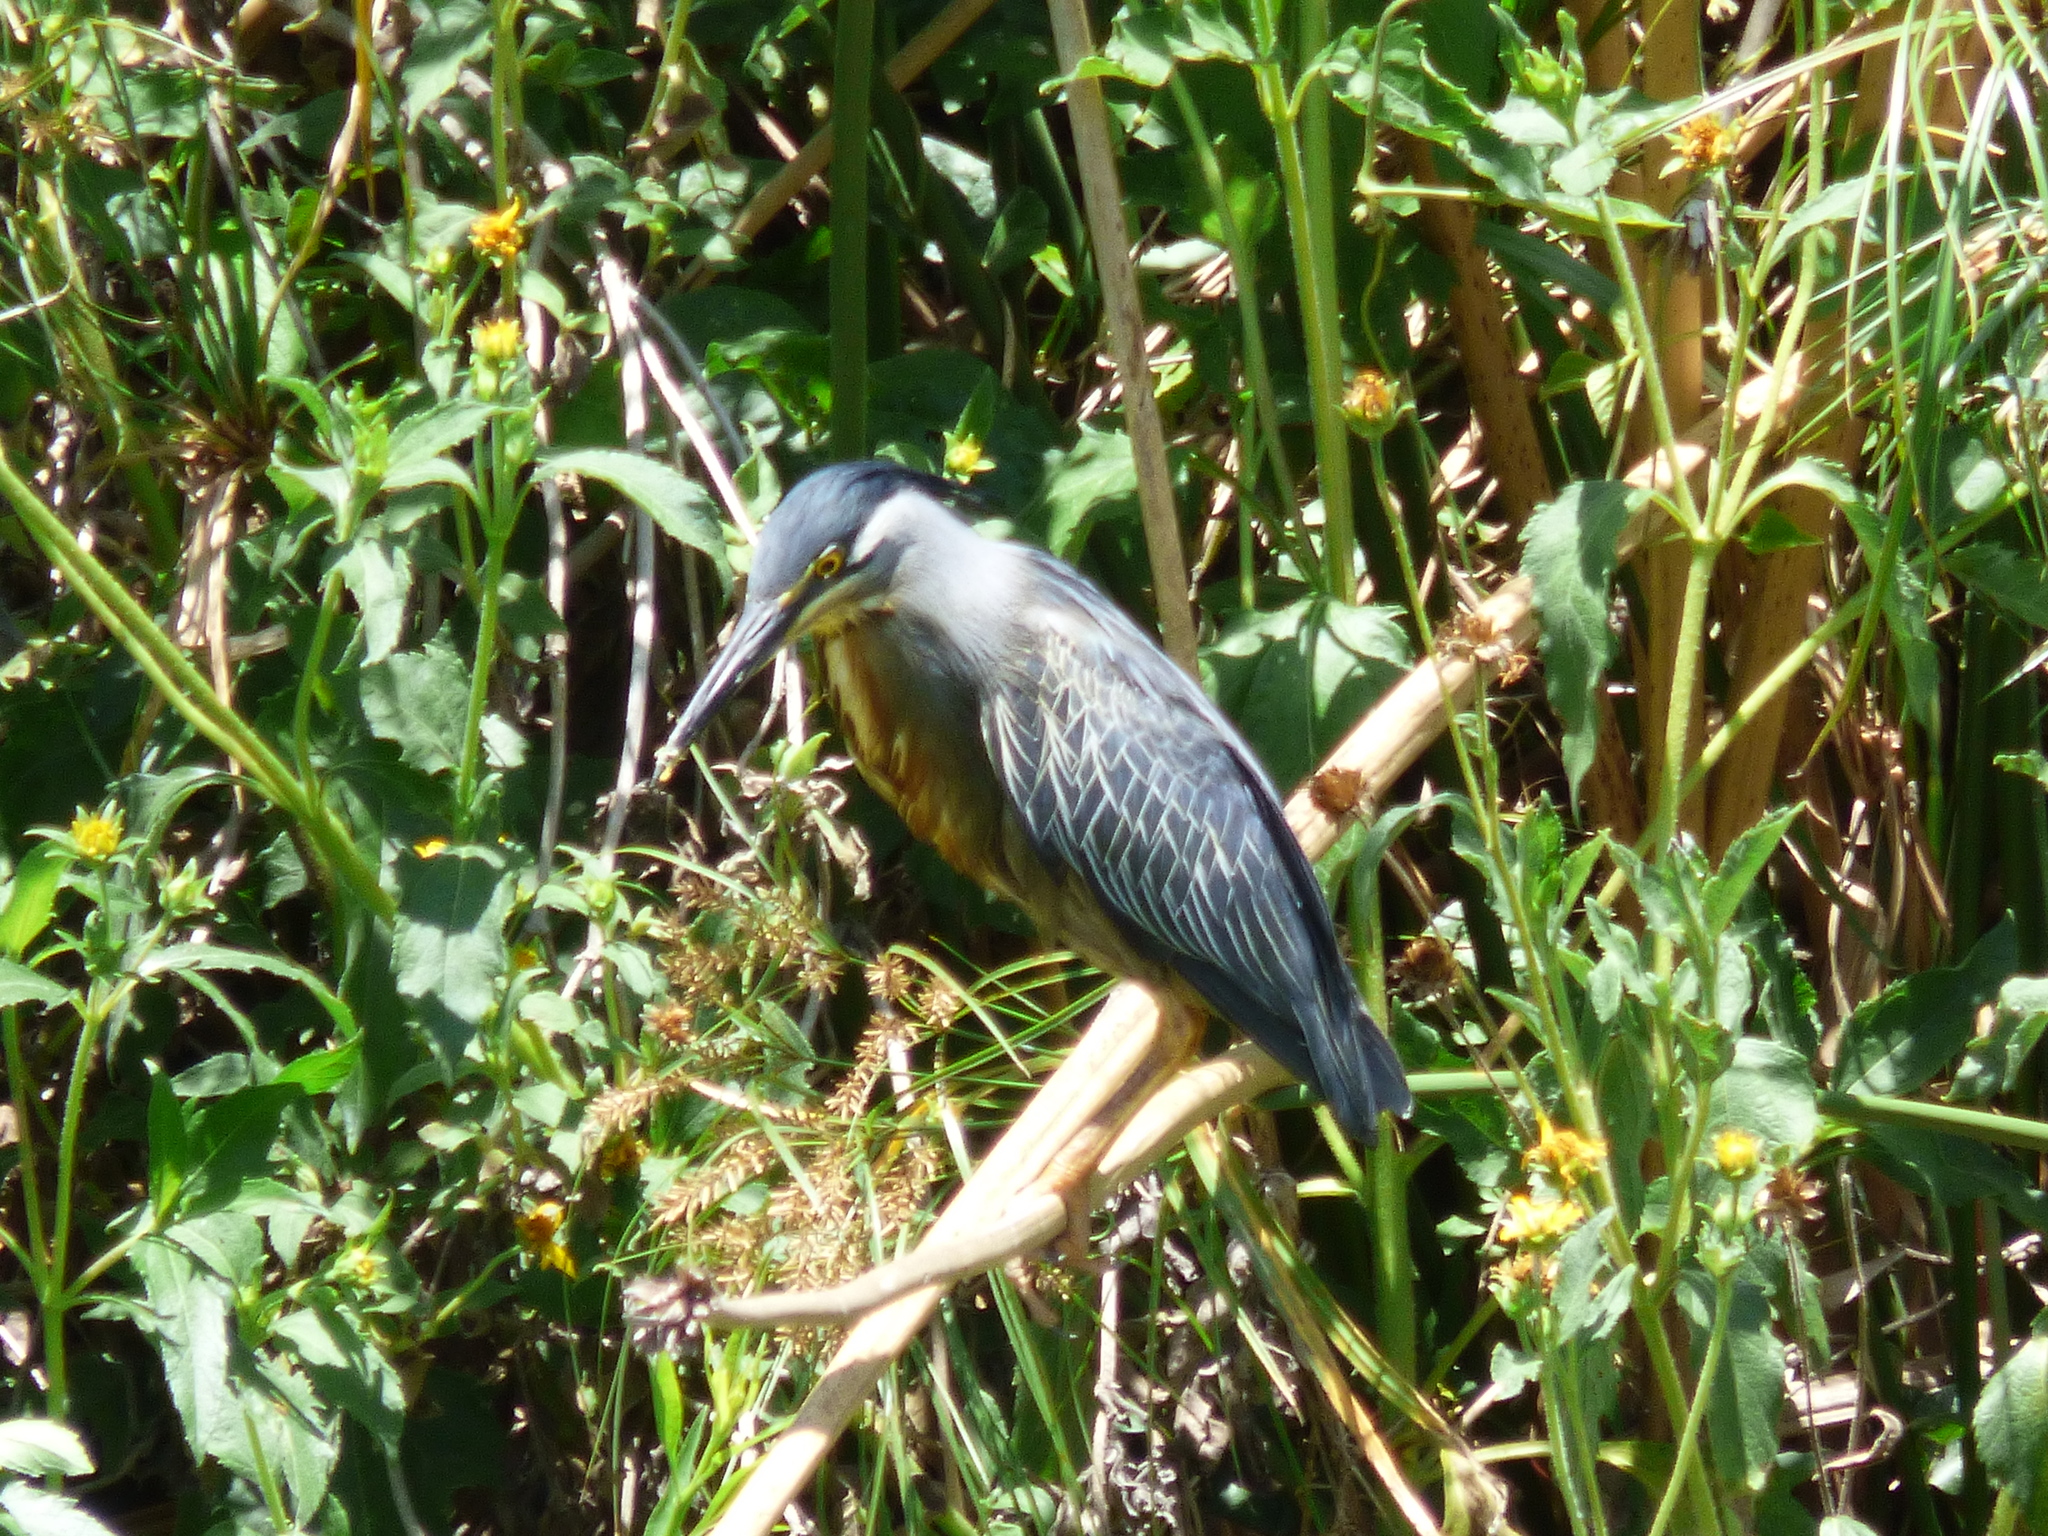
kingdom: Animalia
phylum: Chordata
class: Aves
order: Pelecaniformes
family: Ardeidae
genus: Butorides
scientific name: Butorides striata
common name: Striated heron
